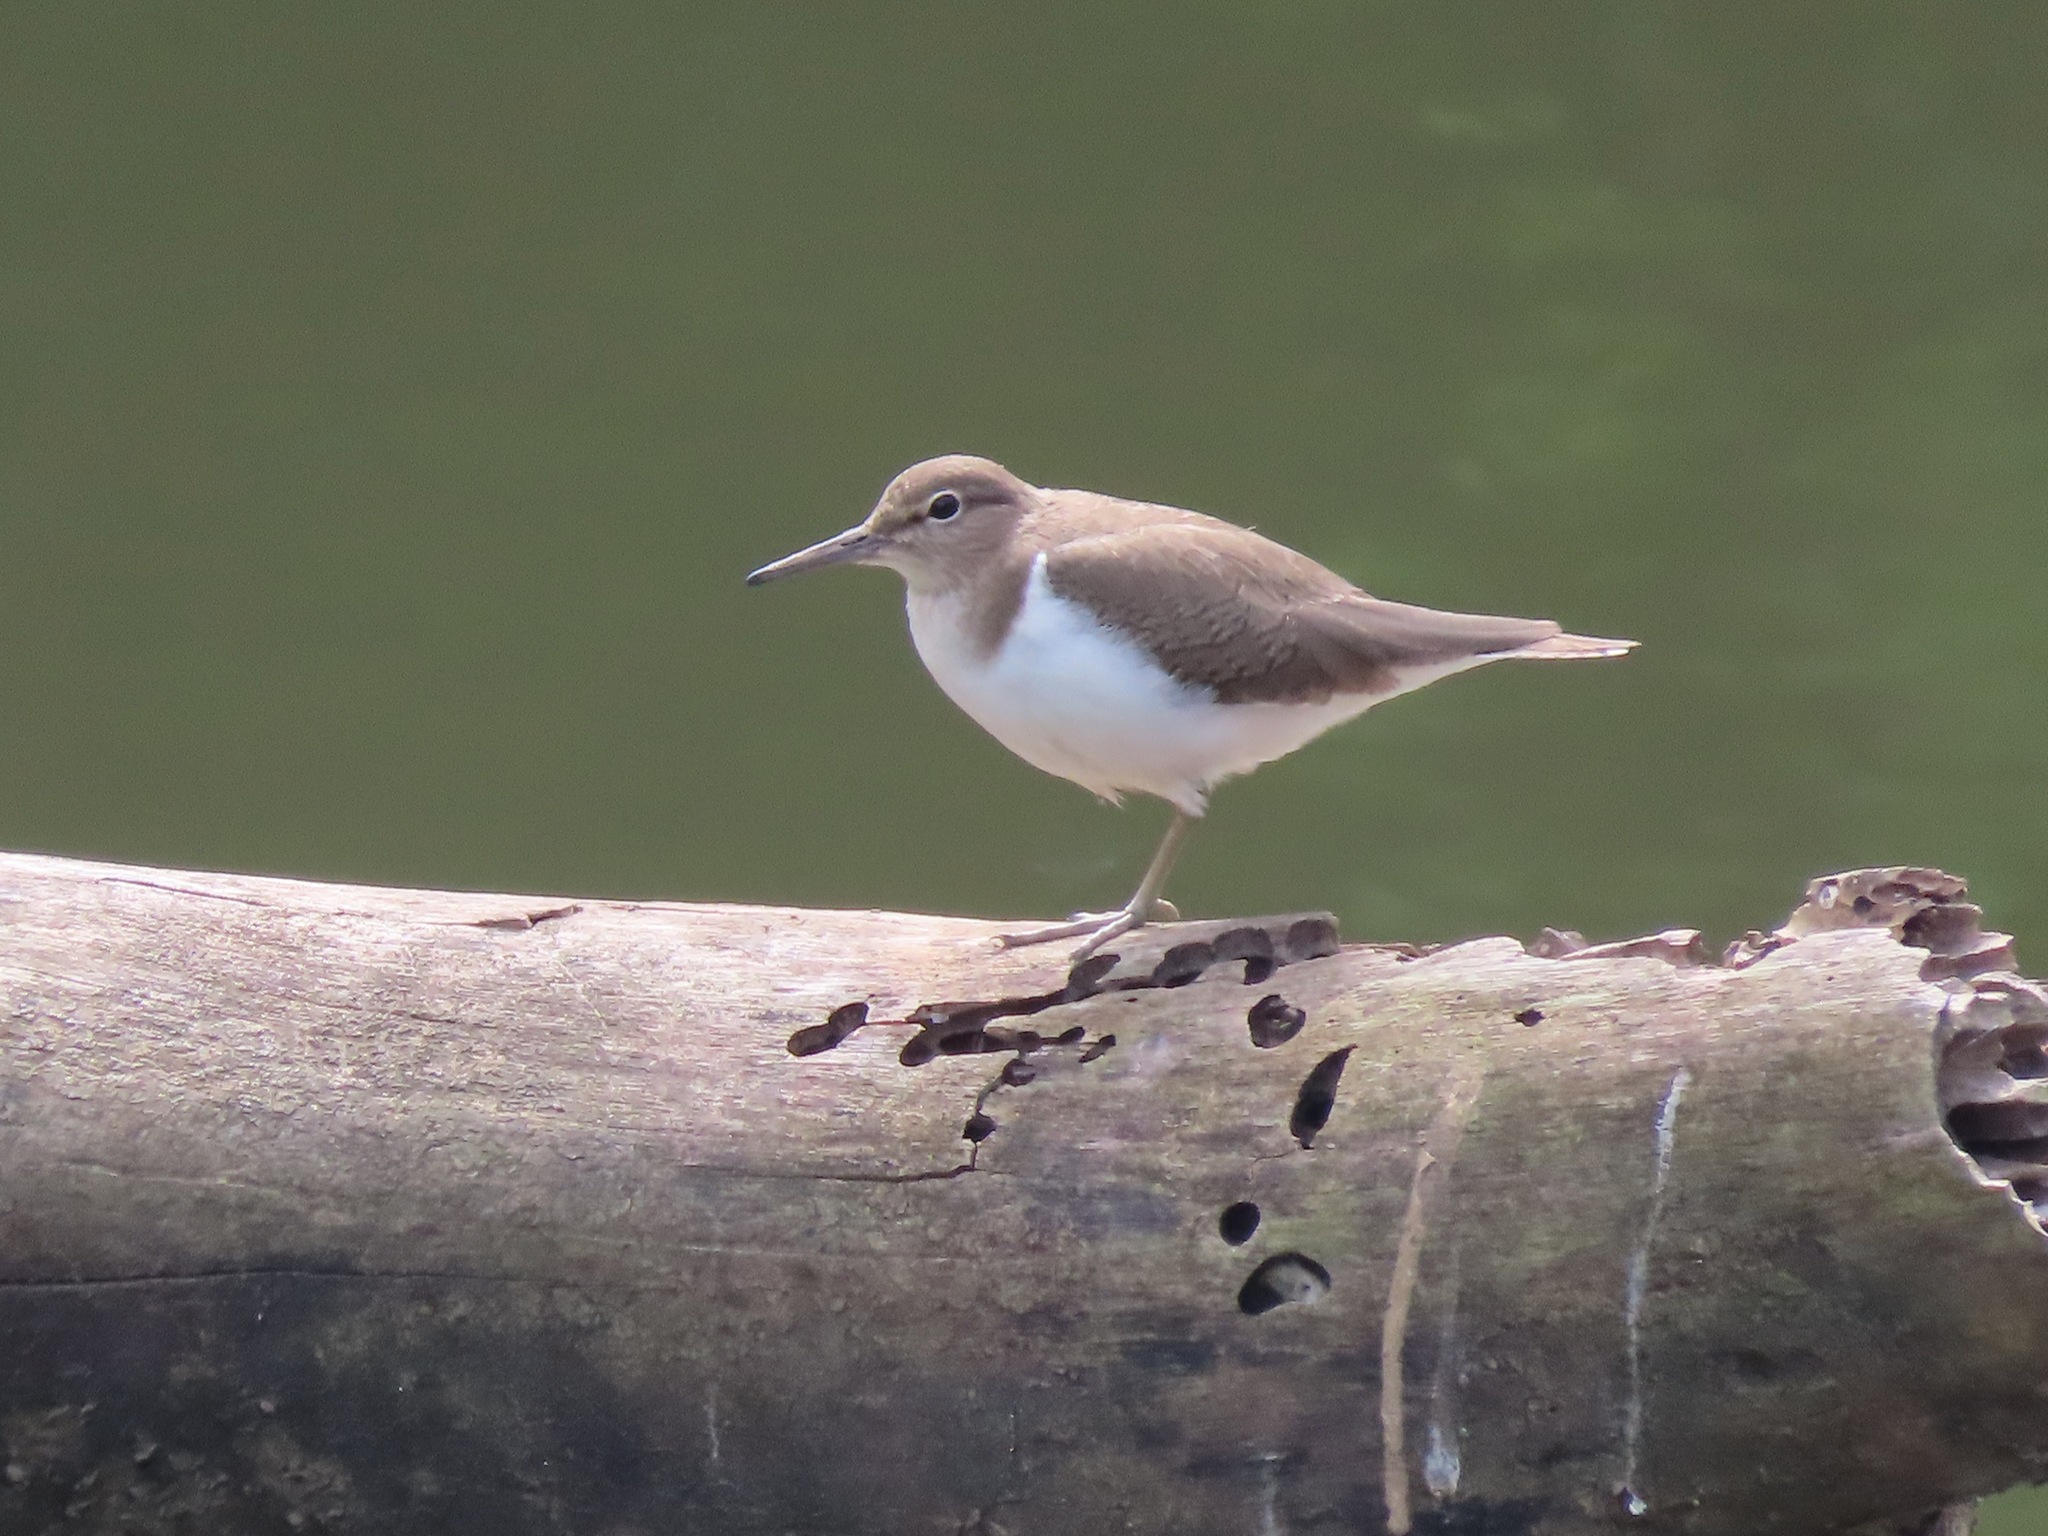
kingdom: Animalia
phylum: Chordata
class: Aves
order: Charadriiformes
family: Scolopacidae
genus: Actitis
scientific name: Actitis hypoleucos
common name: Common sandpiper
